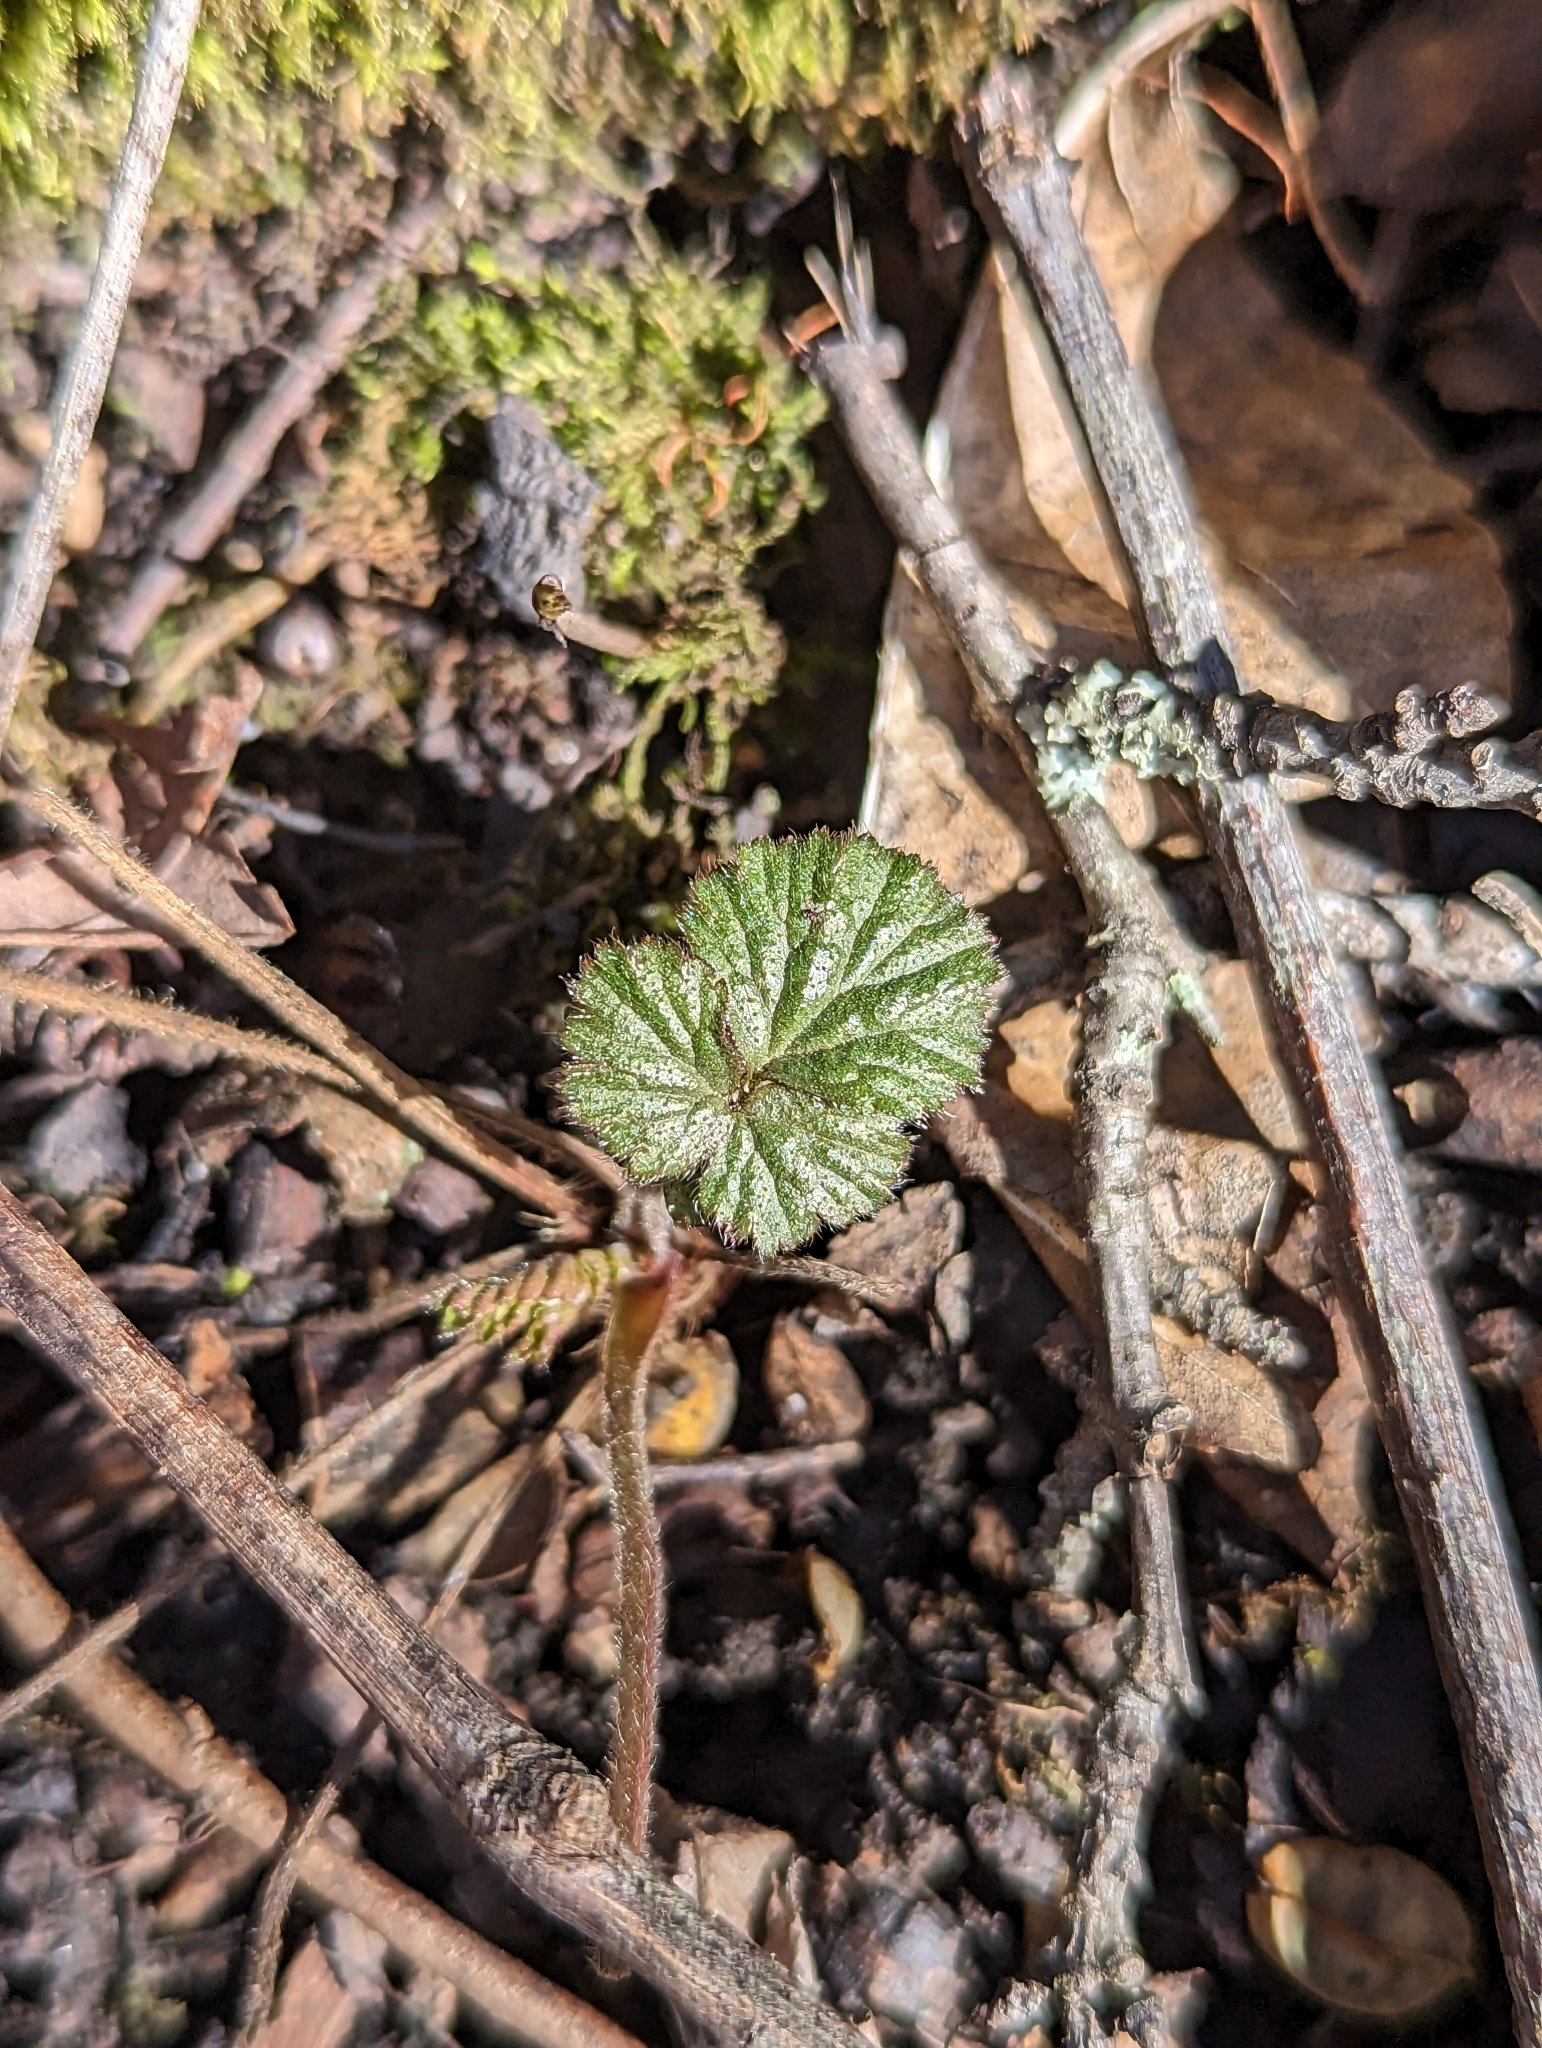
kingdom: Plantae
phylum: Tracheophyta
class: Magnoliopsida
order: Rosales
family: Rosaceae
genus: Geum
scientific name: Geum canadense
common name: White avens
